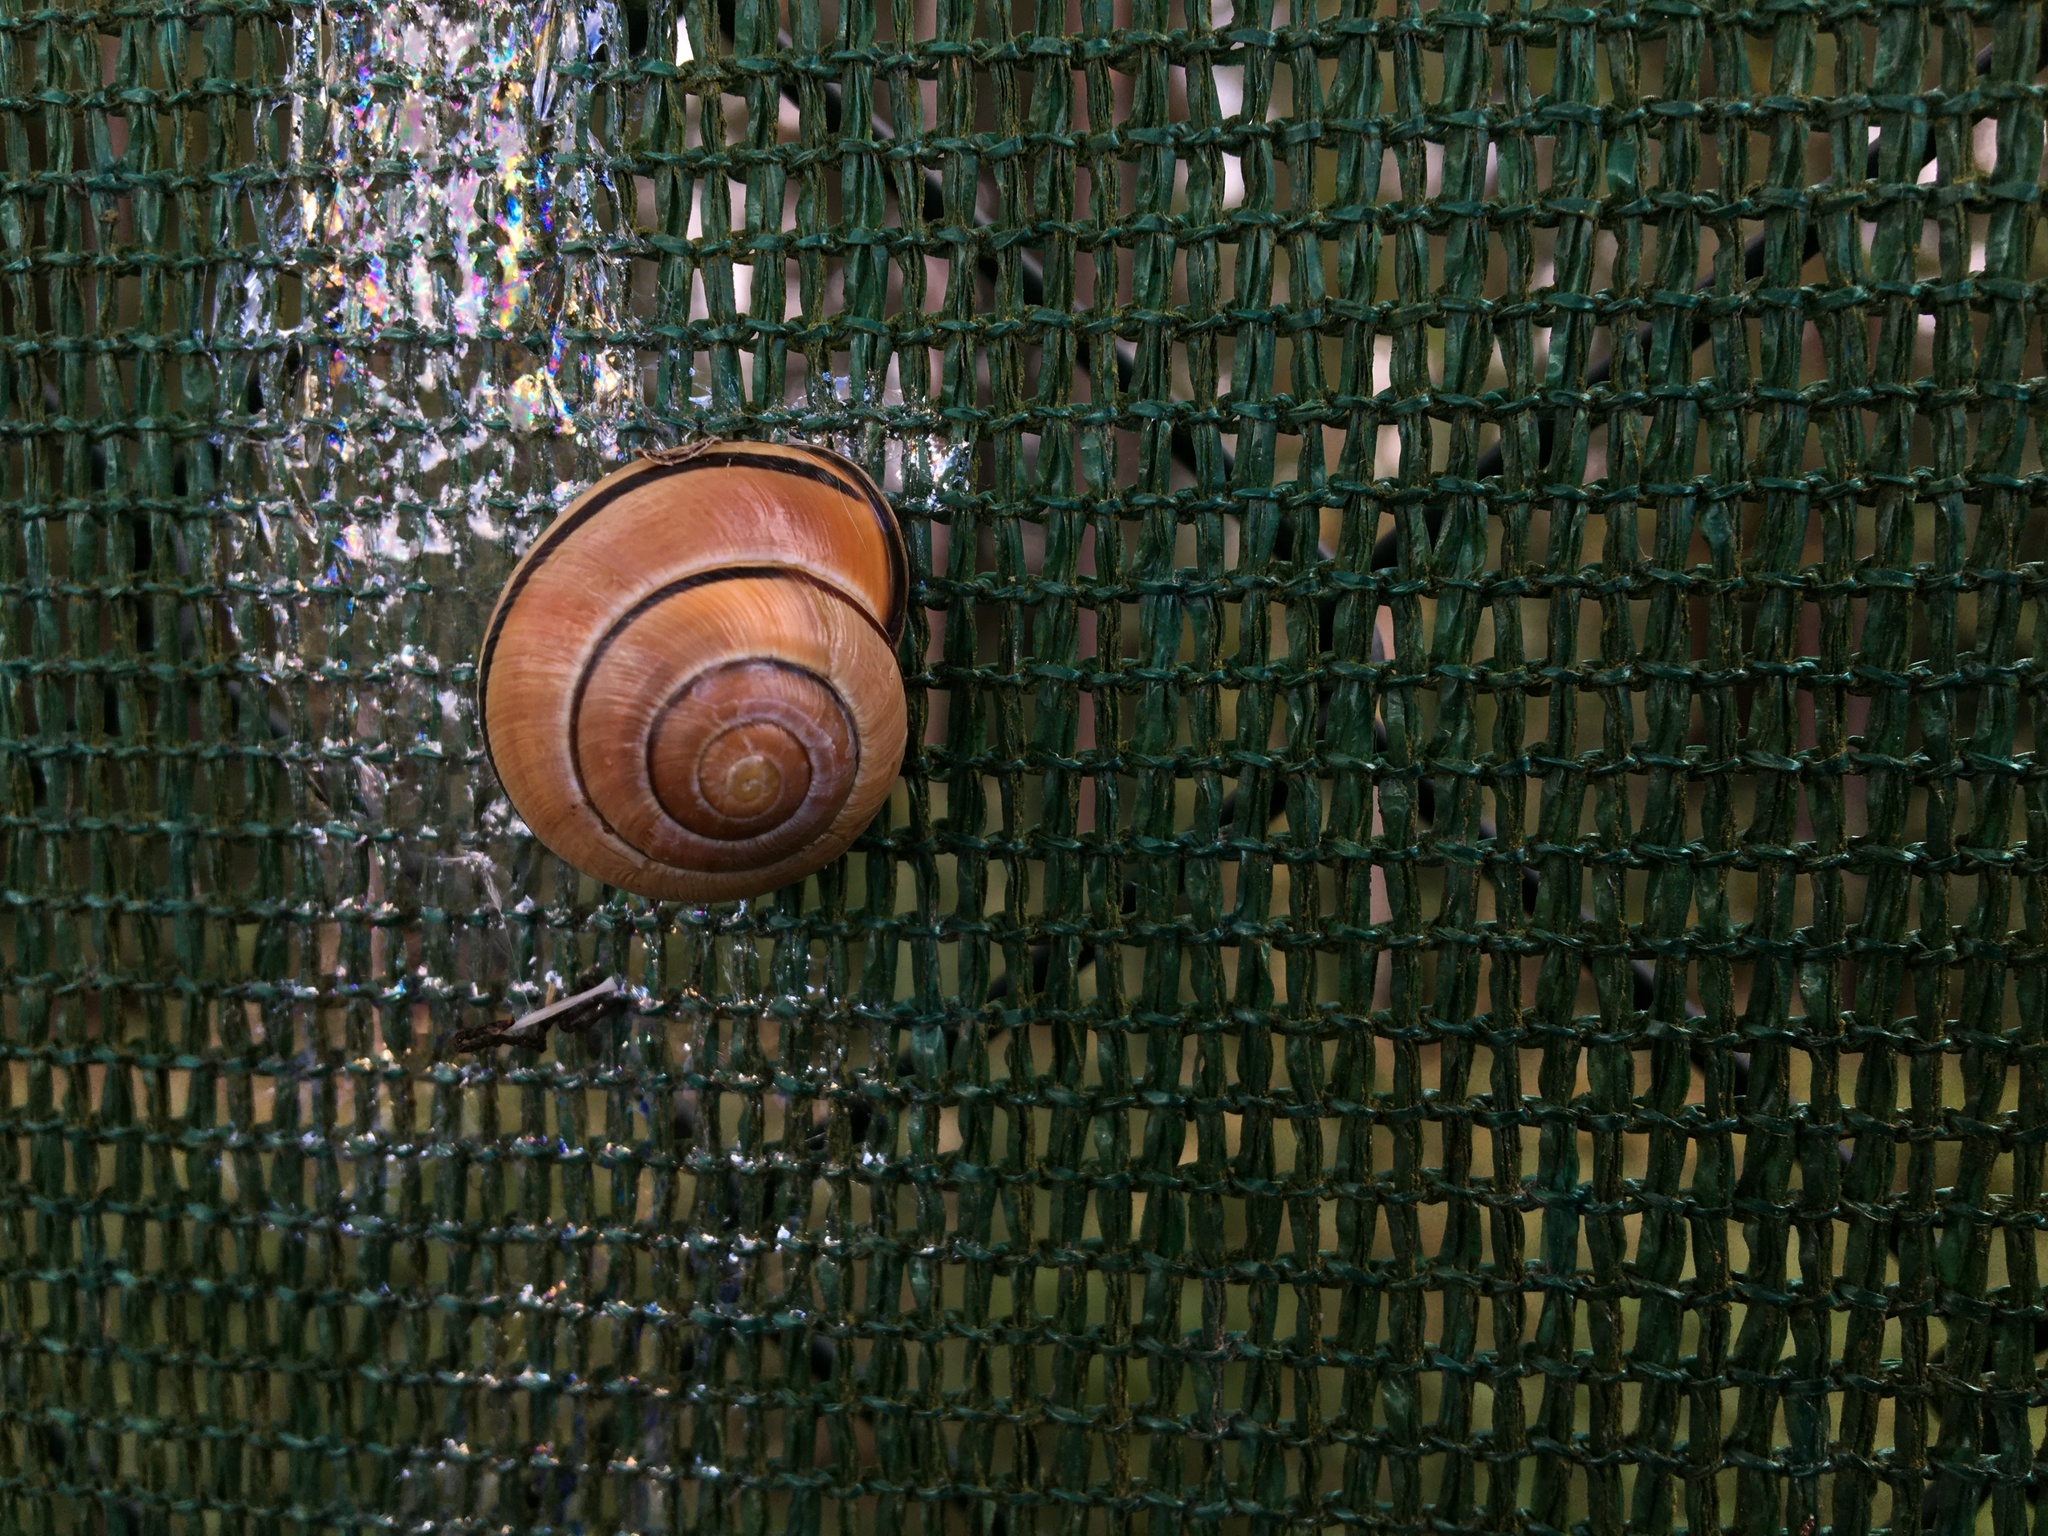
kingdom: Animalia
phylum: Mollusca
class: Gastropoda
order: Stylommatophora
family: Helicidae
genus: Cepaea
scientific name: Cepaea nemoralis
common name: Grovesnail
